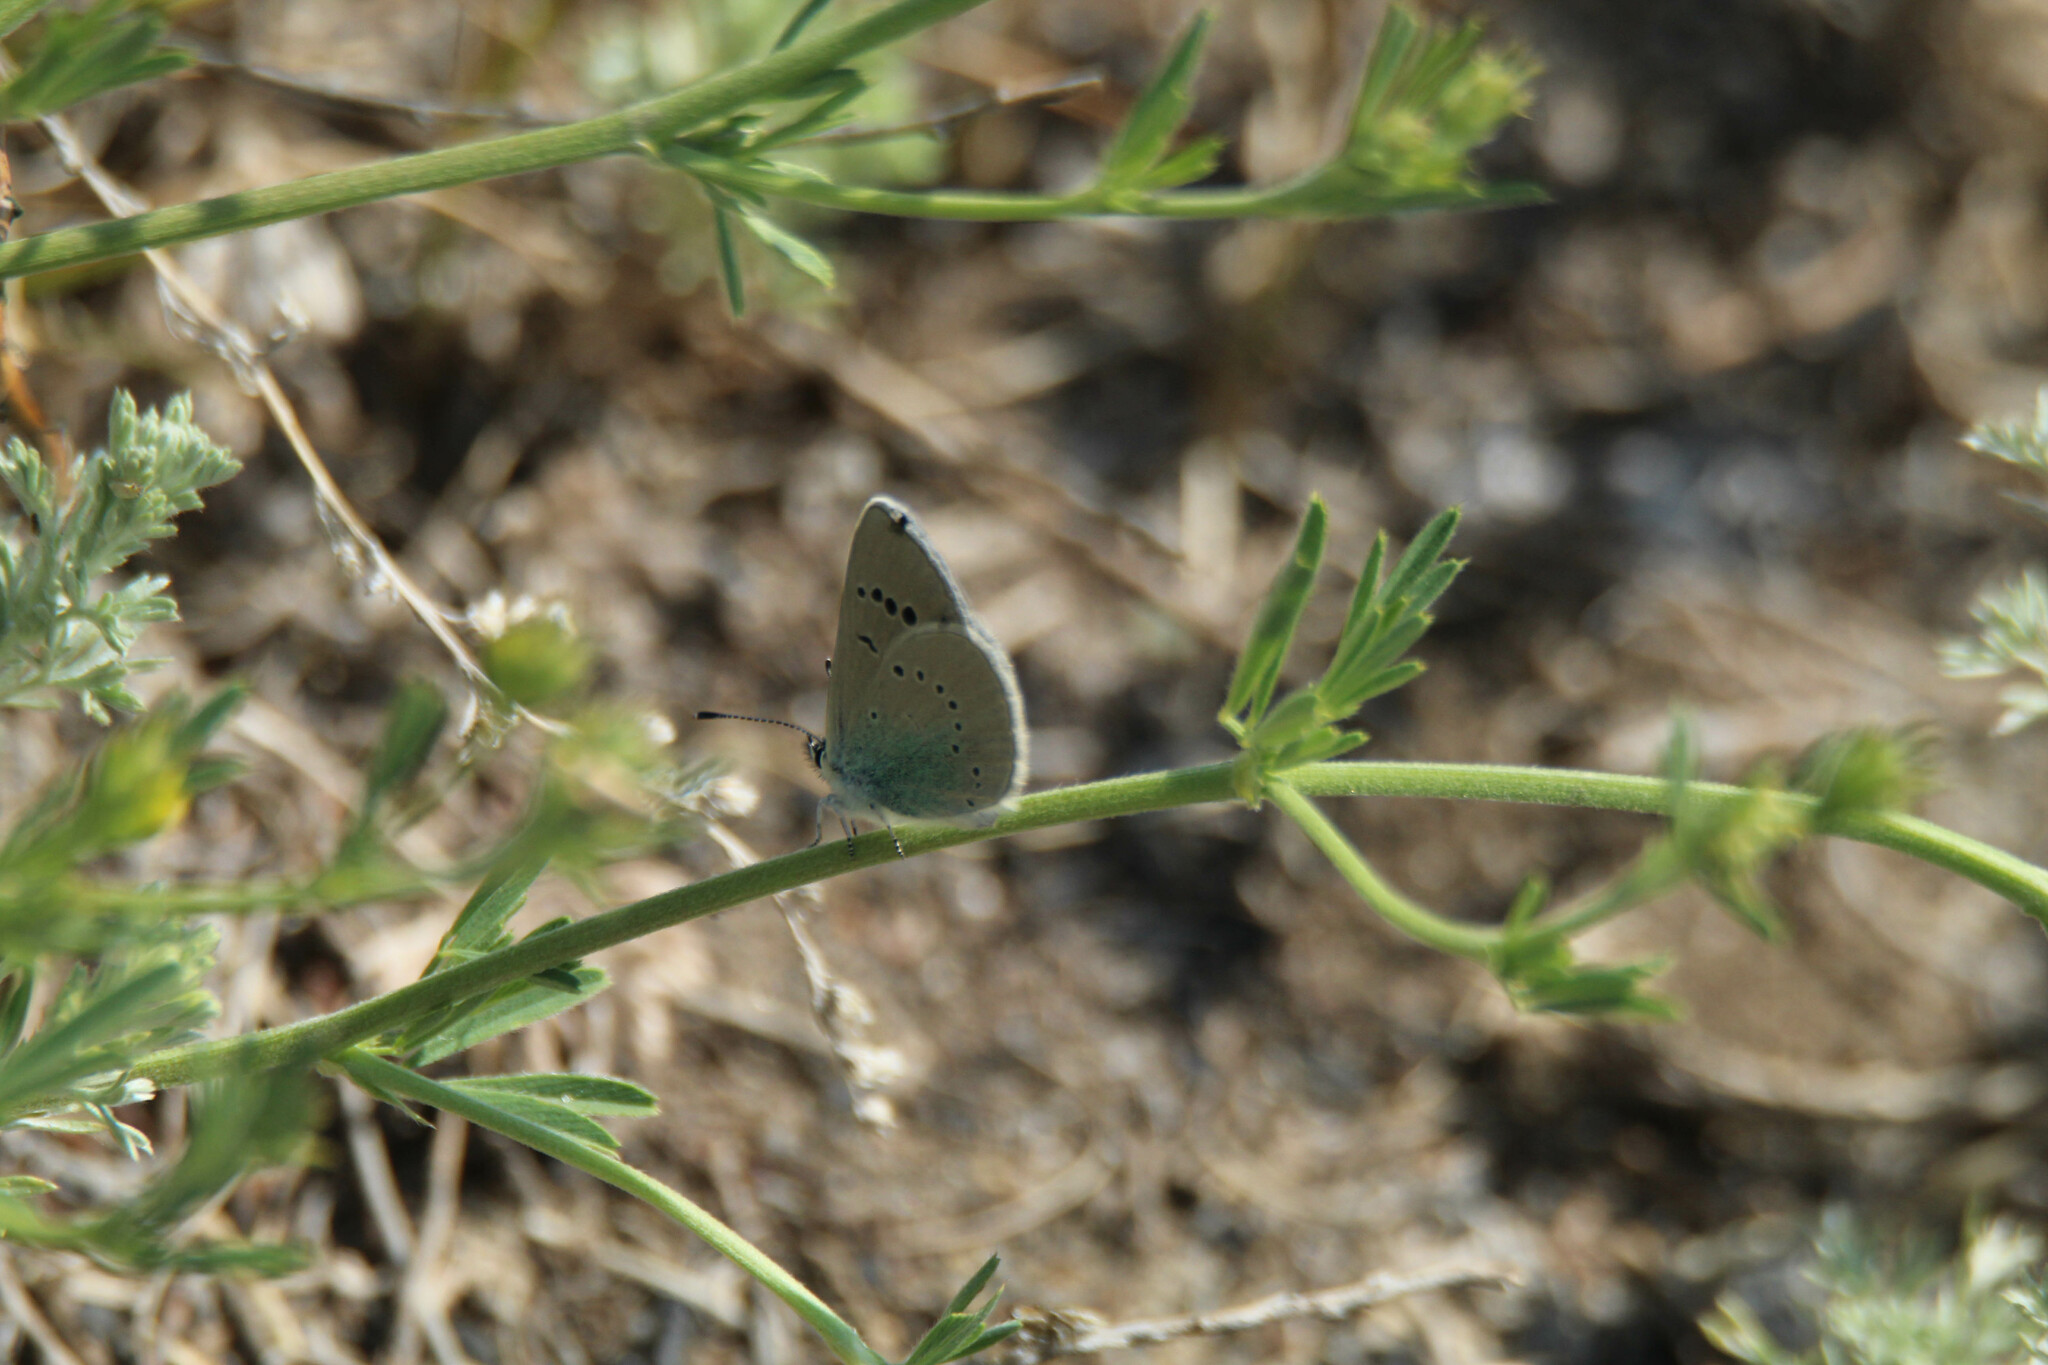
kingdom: Animalia
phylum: Arthropoda
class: Insecta
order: Lepidoptera
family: Lycaenidae
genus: Glaucopsyche
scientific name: Glaucopsyche alexis
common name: Green-underside blue
